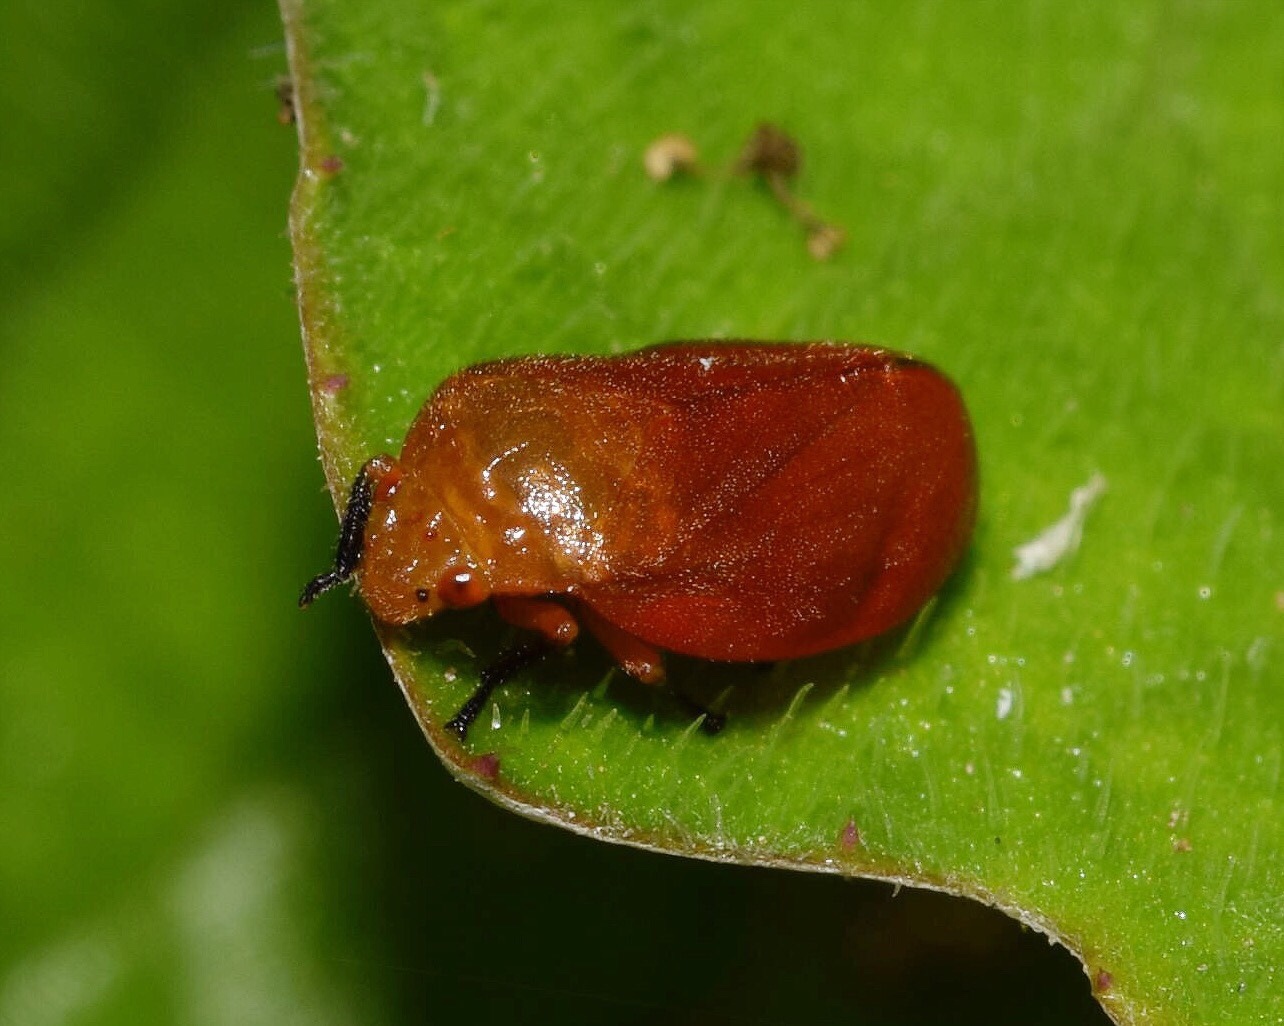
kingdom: Animalia
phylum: Arthropoda
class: Insecta
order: Hemiptera
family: Cercopidae
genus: Bandusia
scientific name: Bandusia rubicunda
